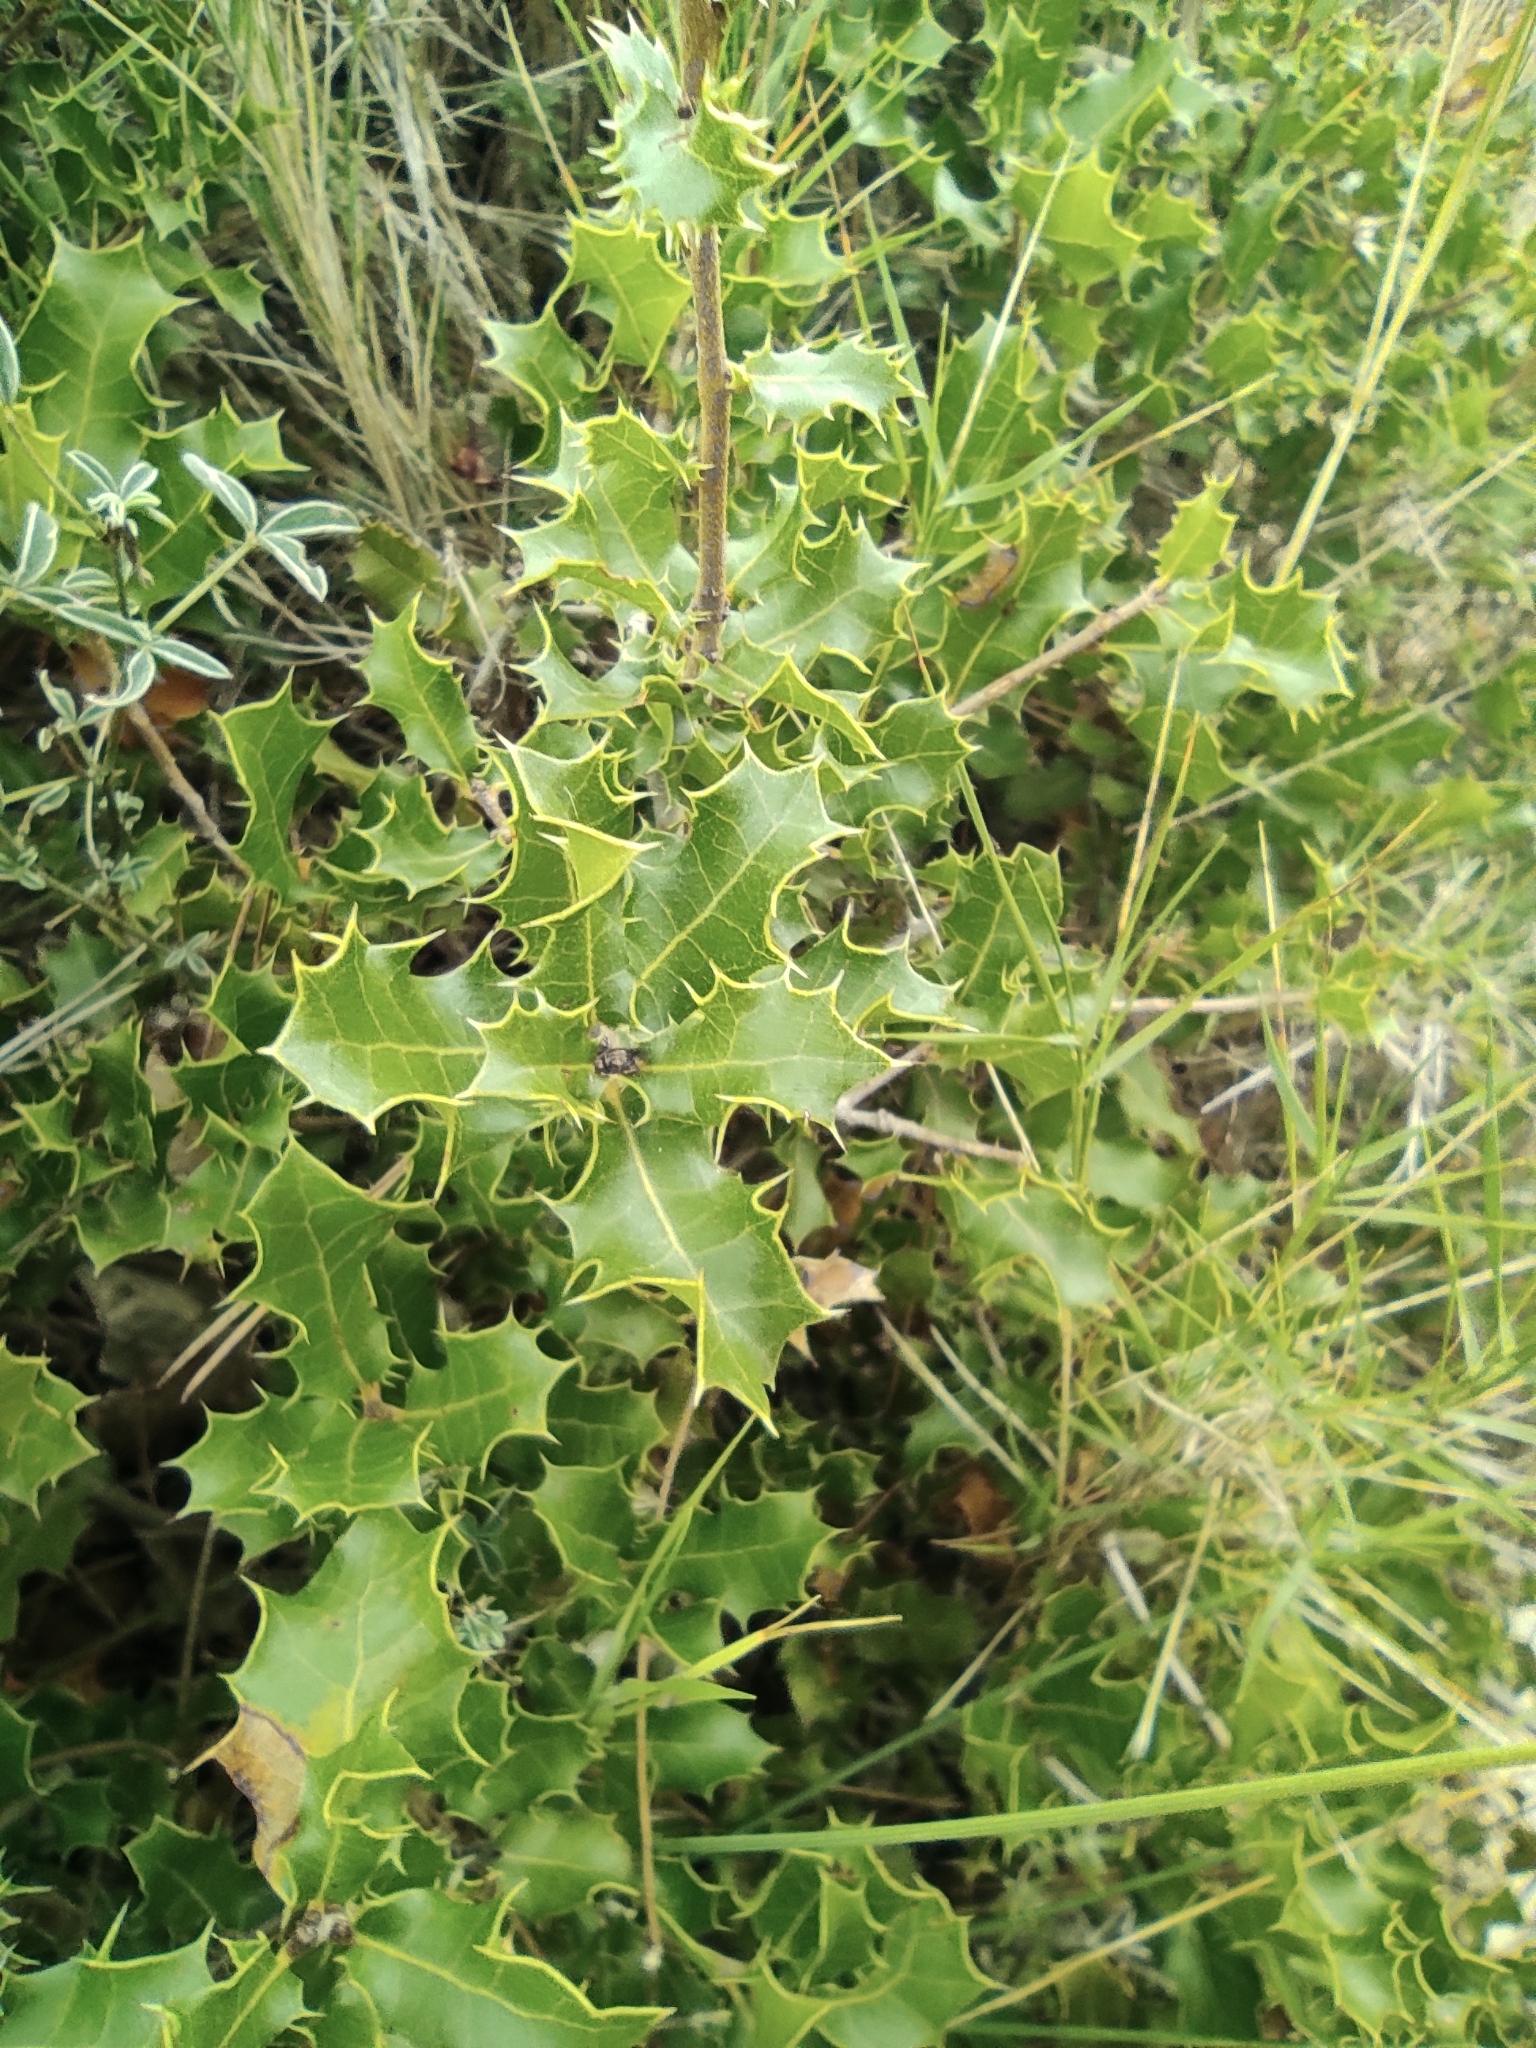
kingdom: Plantae
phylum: Tracheophyta
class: Magnoliopsida
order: Fagales
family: Fagaceae
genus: Quercus
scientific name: Quercus coccifera
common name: Kermes oak
